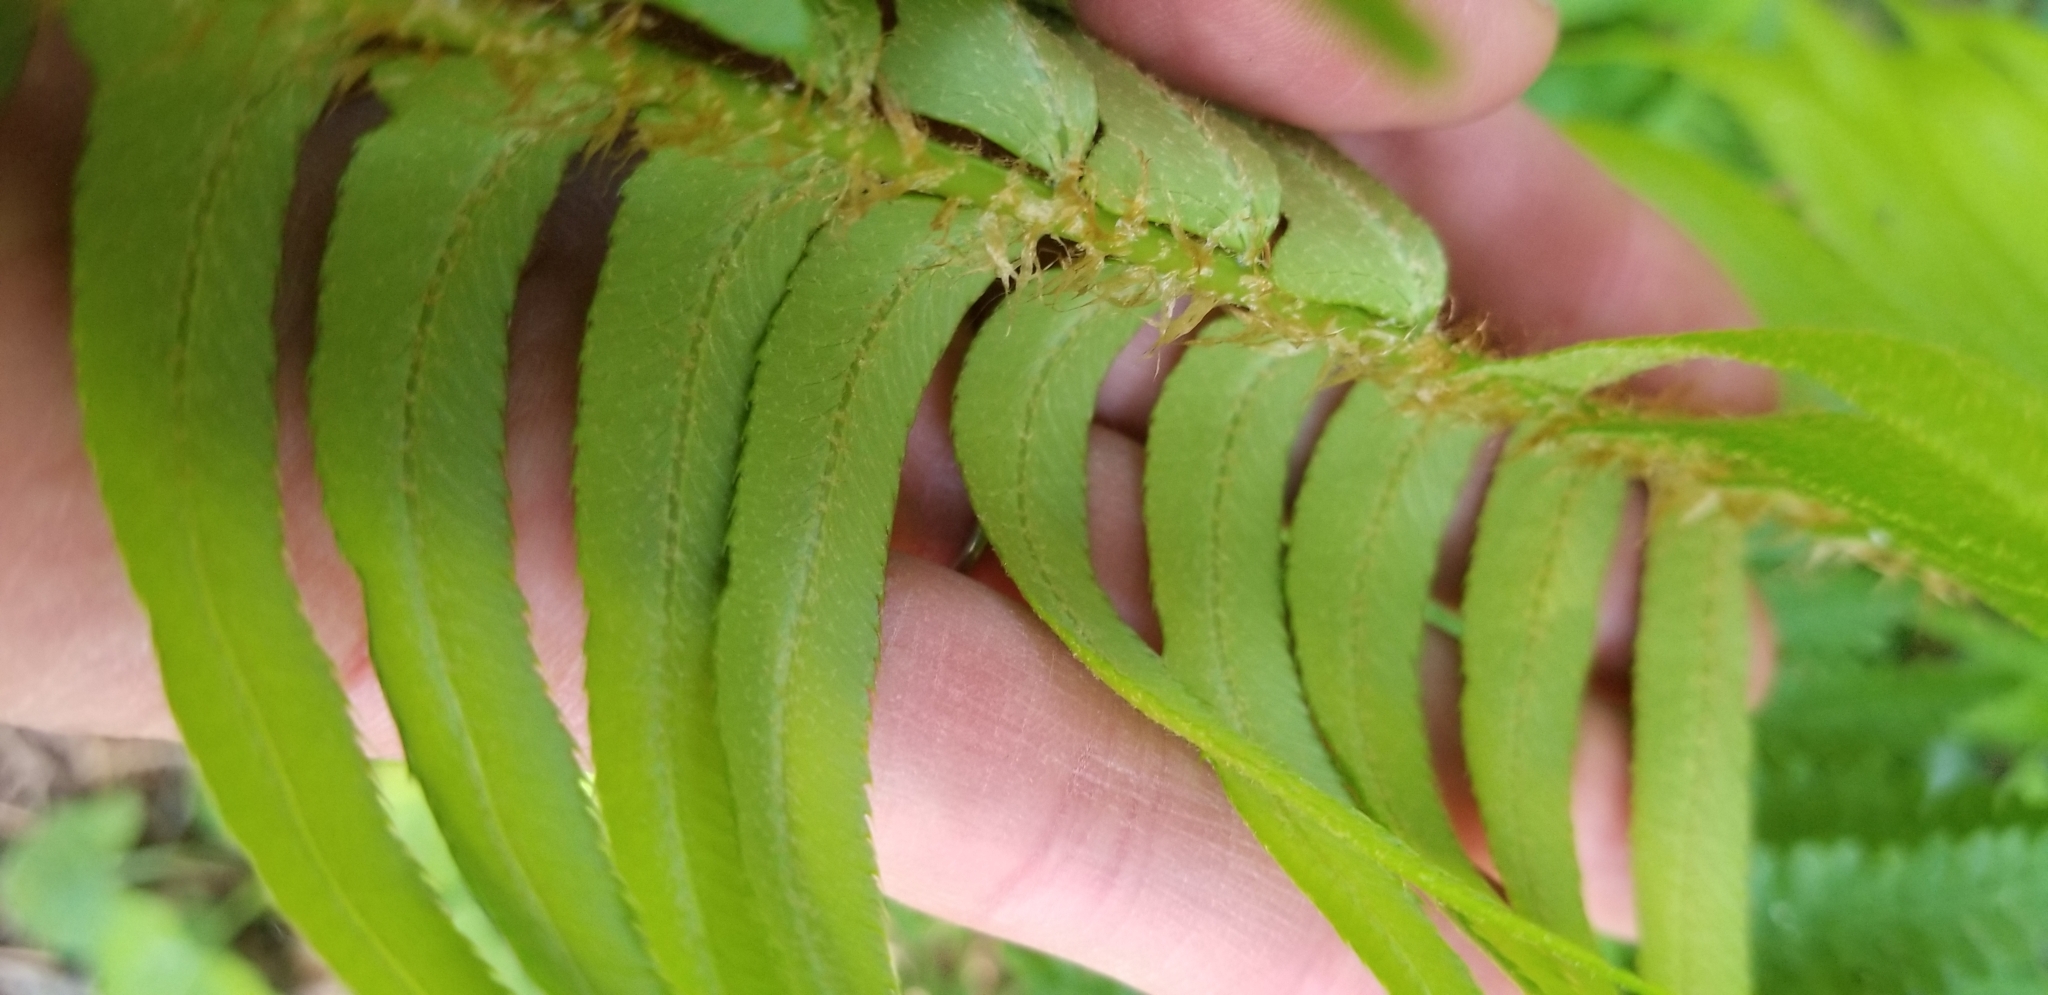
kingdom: Plantae
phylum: Tracheophyta
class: Polypodiopsida
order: Polypodiales
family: Dryopteridaceae
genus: Polystichum
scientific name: Polystichum munitum
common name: Western sword-fern
